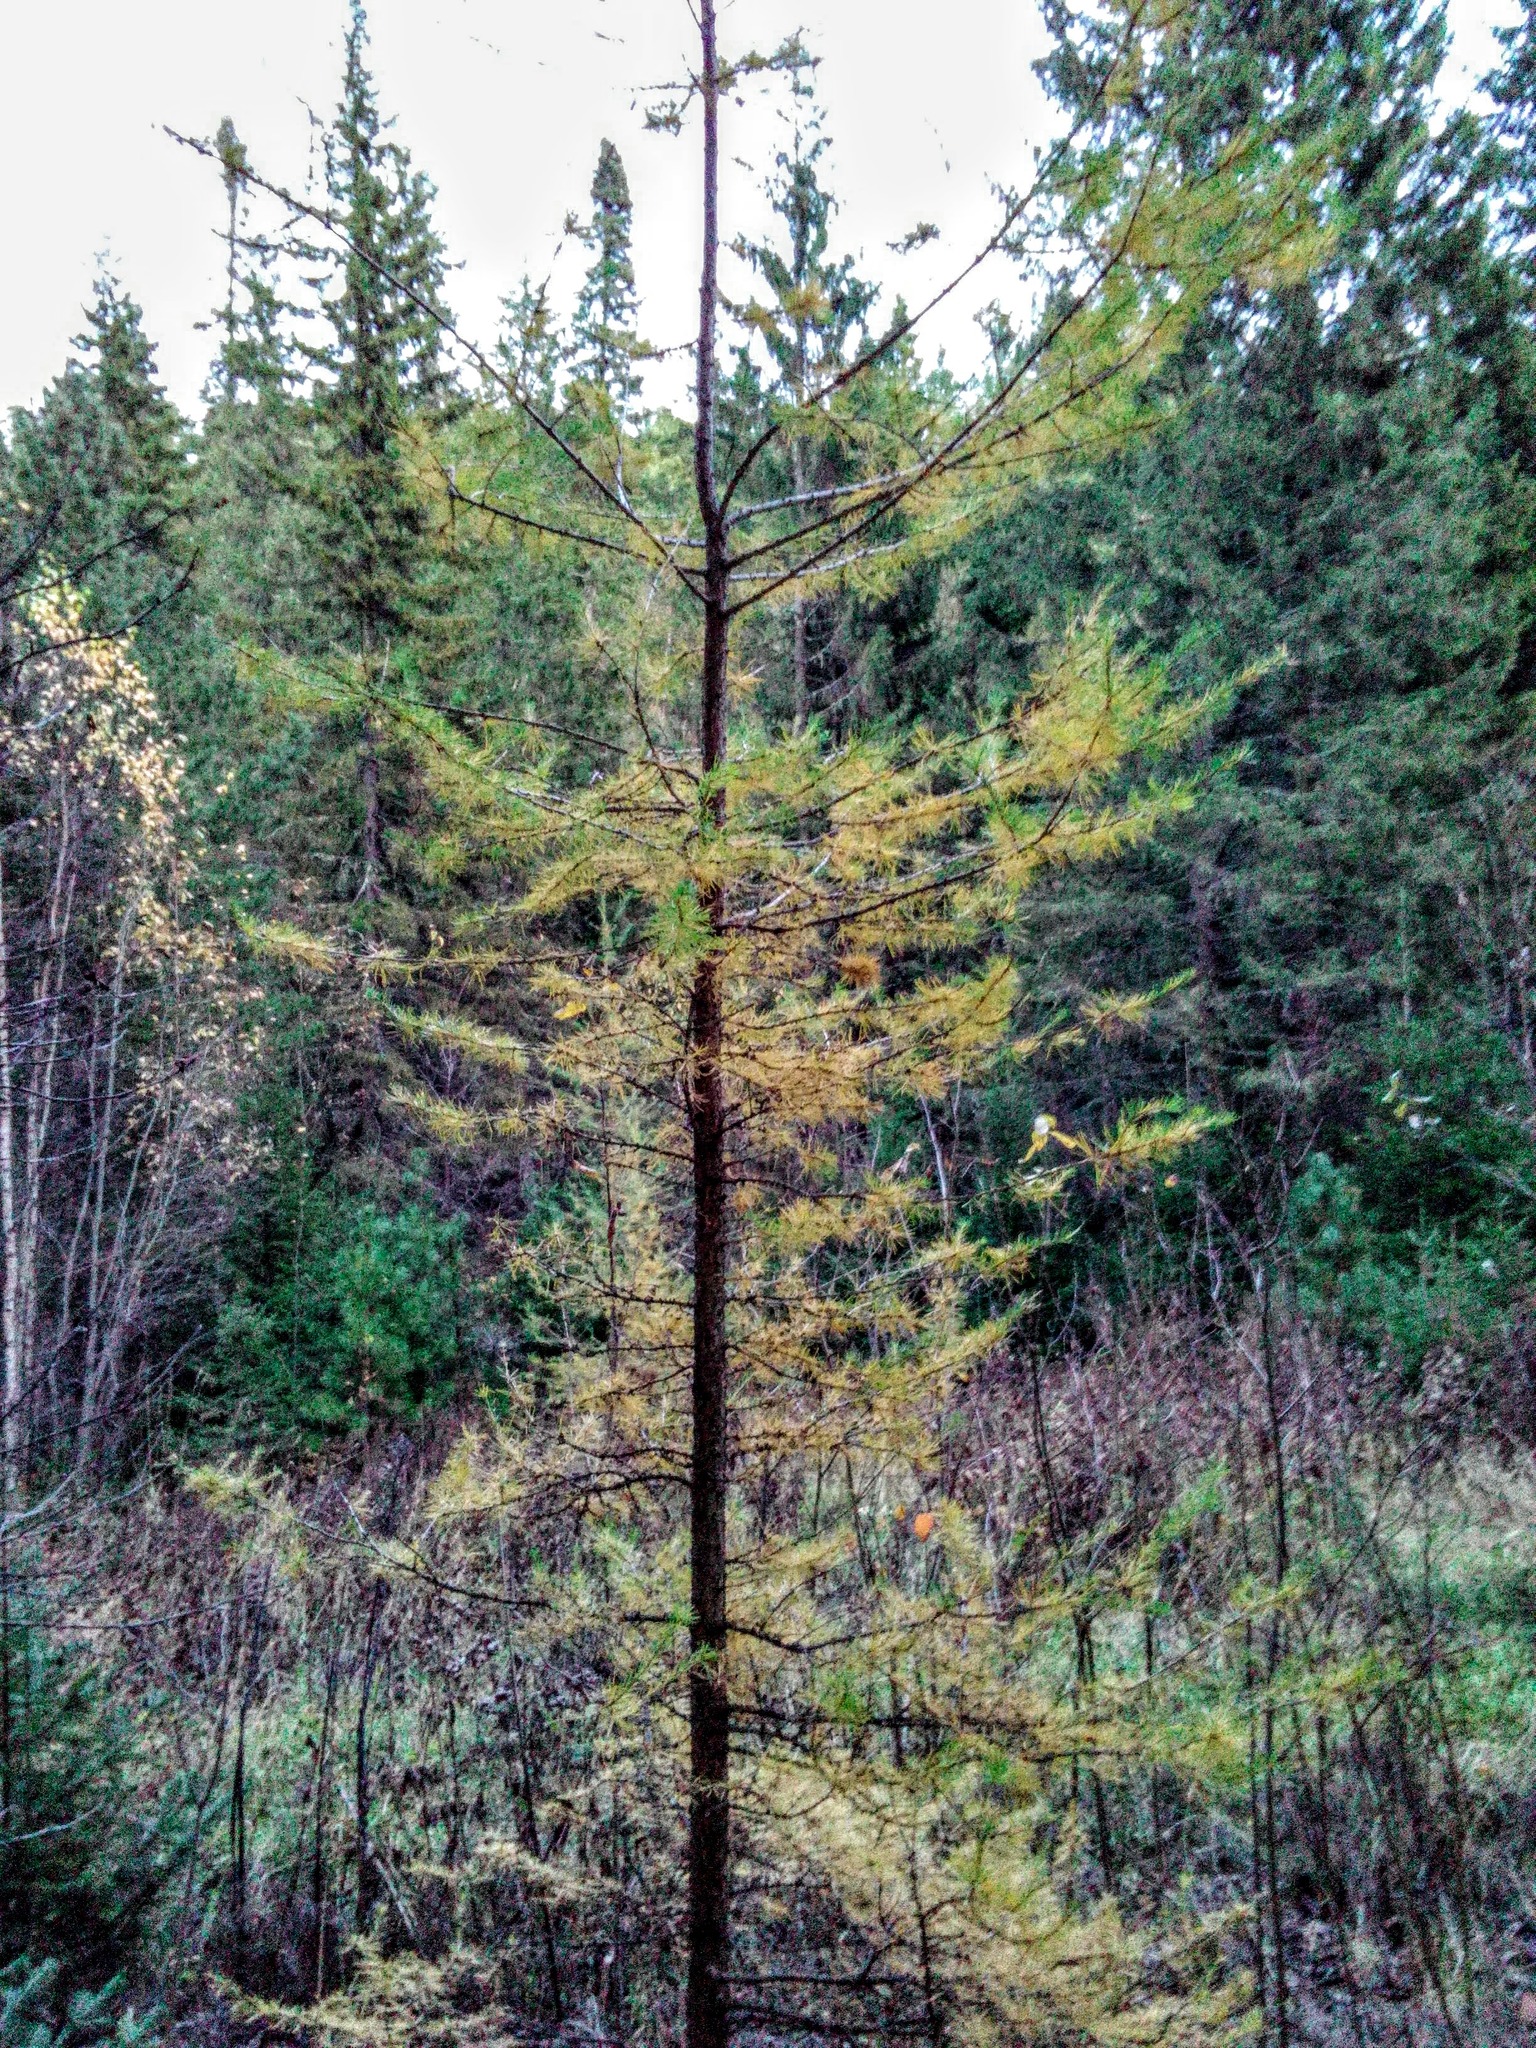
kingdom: Plantae
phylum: Tracheophyta
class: Pinopsida
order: Pinales
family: Pinaceae
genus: Larix
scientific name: Larix sibirica
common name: Siberian larch
